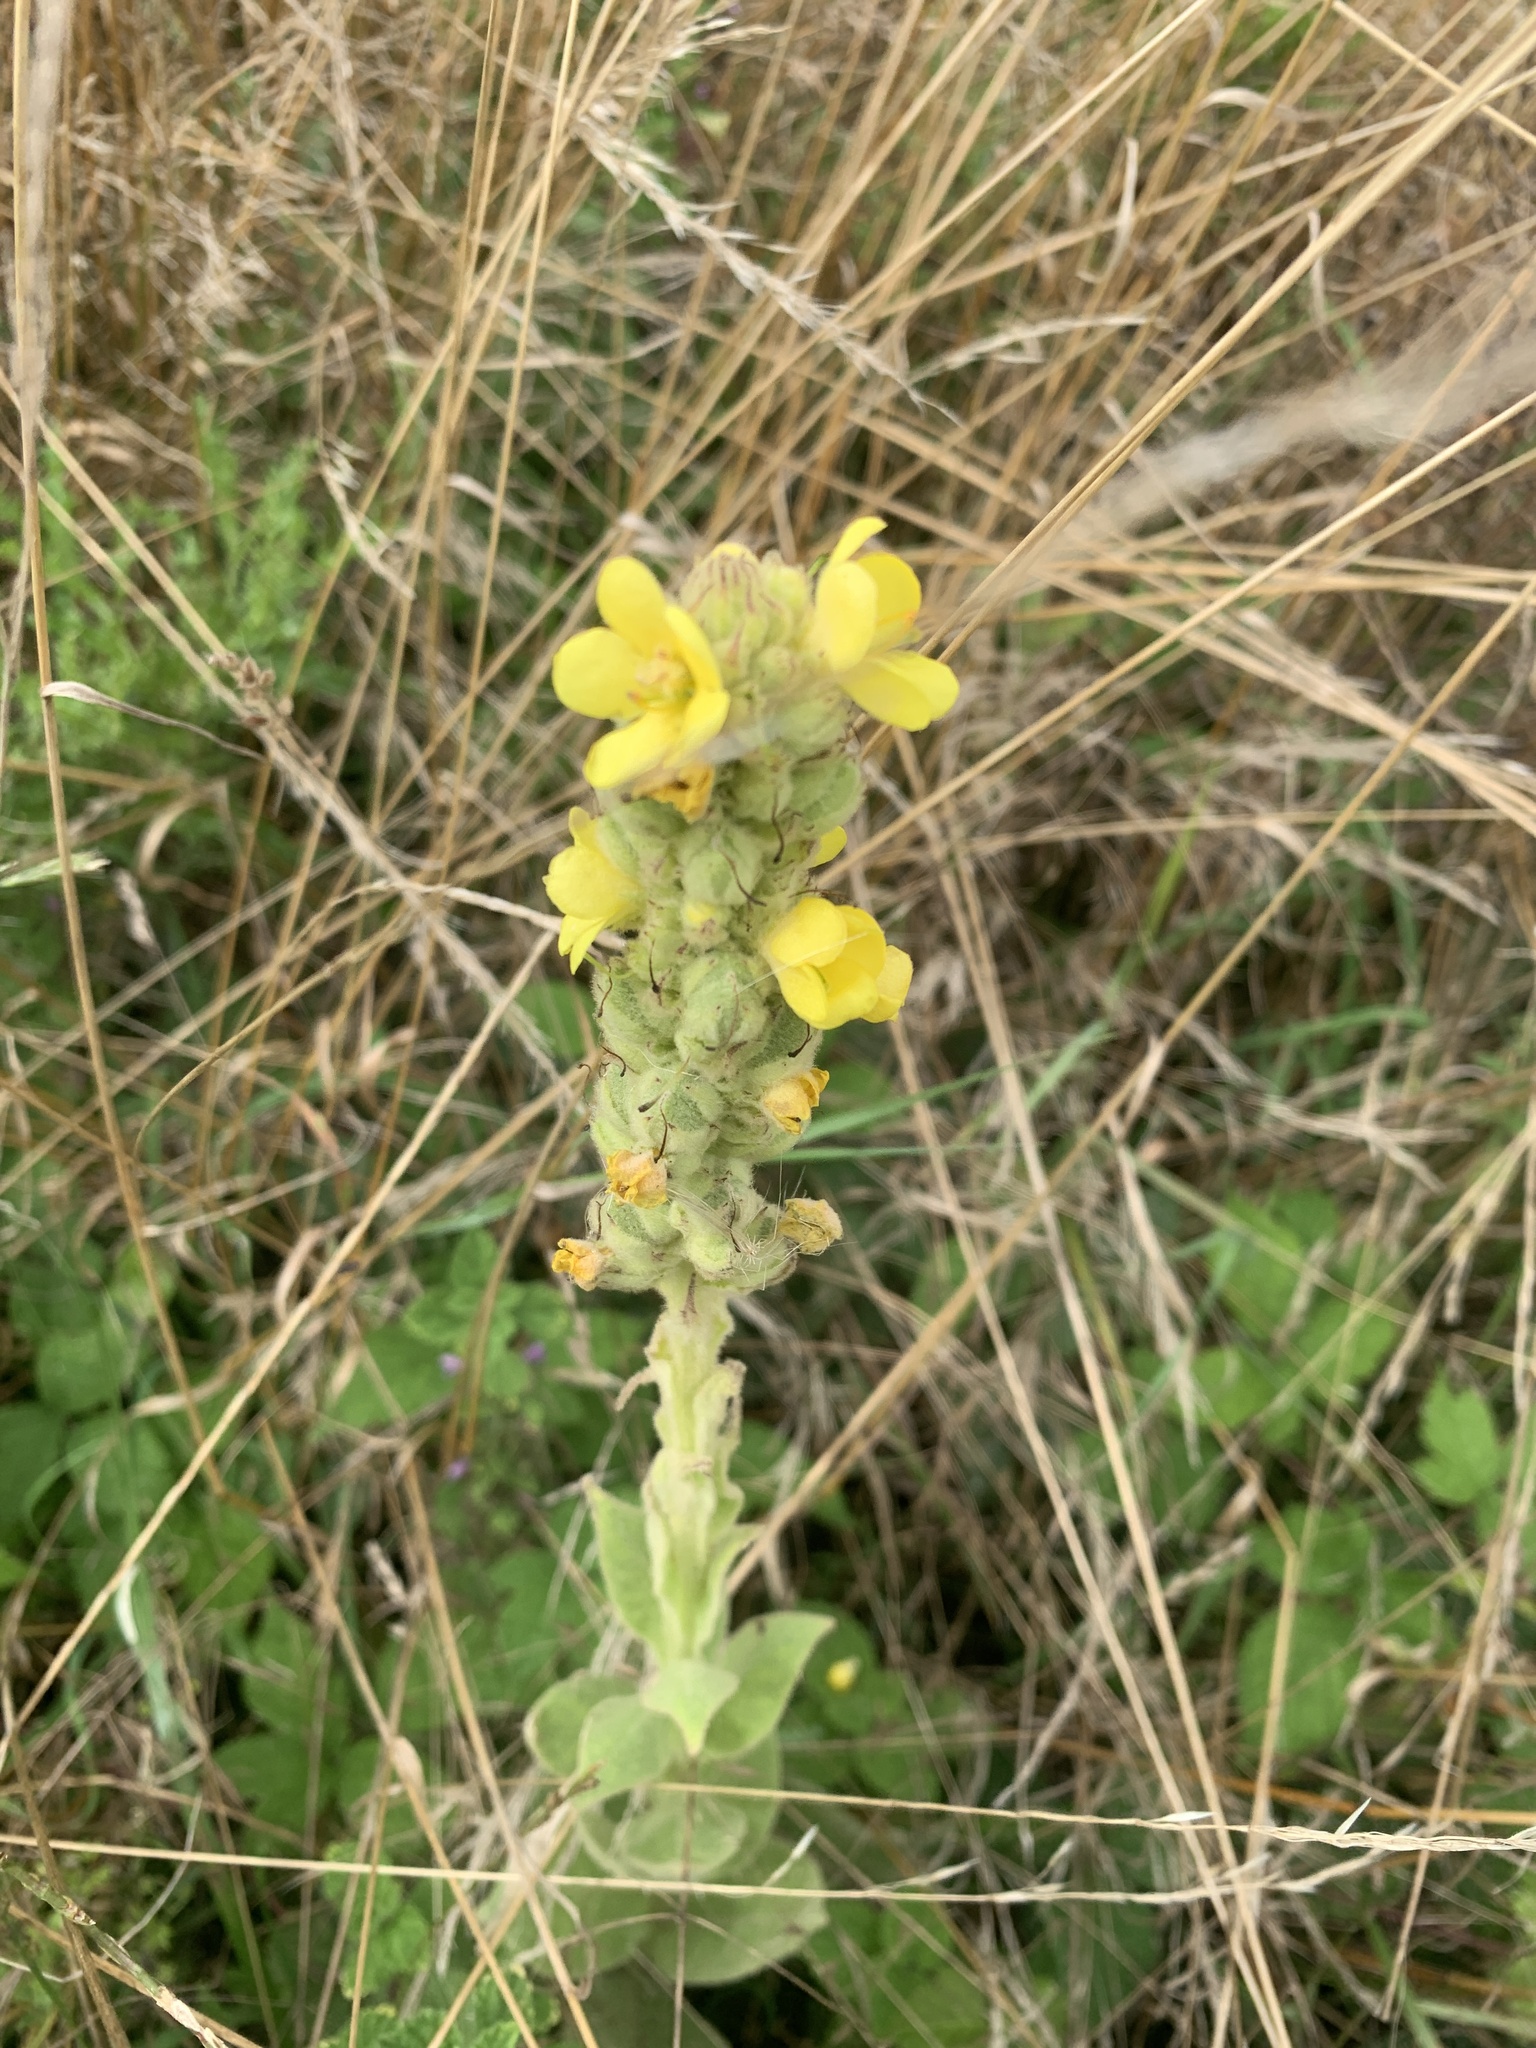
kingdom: Plantae
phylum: Tracheophyta
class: Magnoliopsida
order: Lamiales
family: Scrophulariaceae
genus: Verbascum
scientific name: Verbascum thapsus
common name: Common mullein
